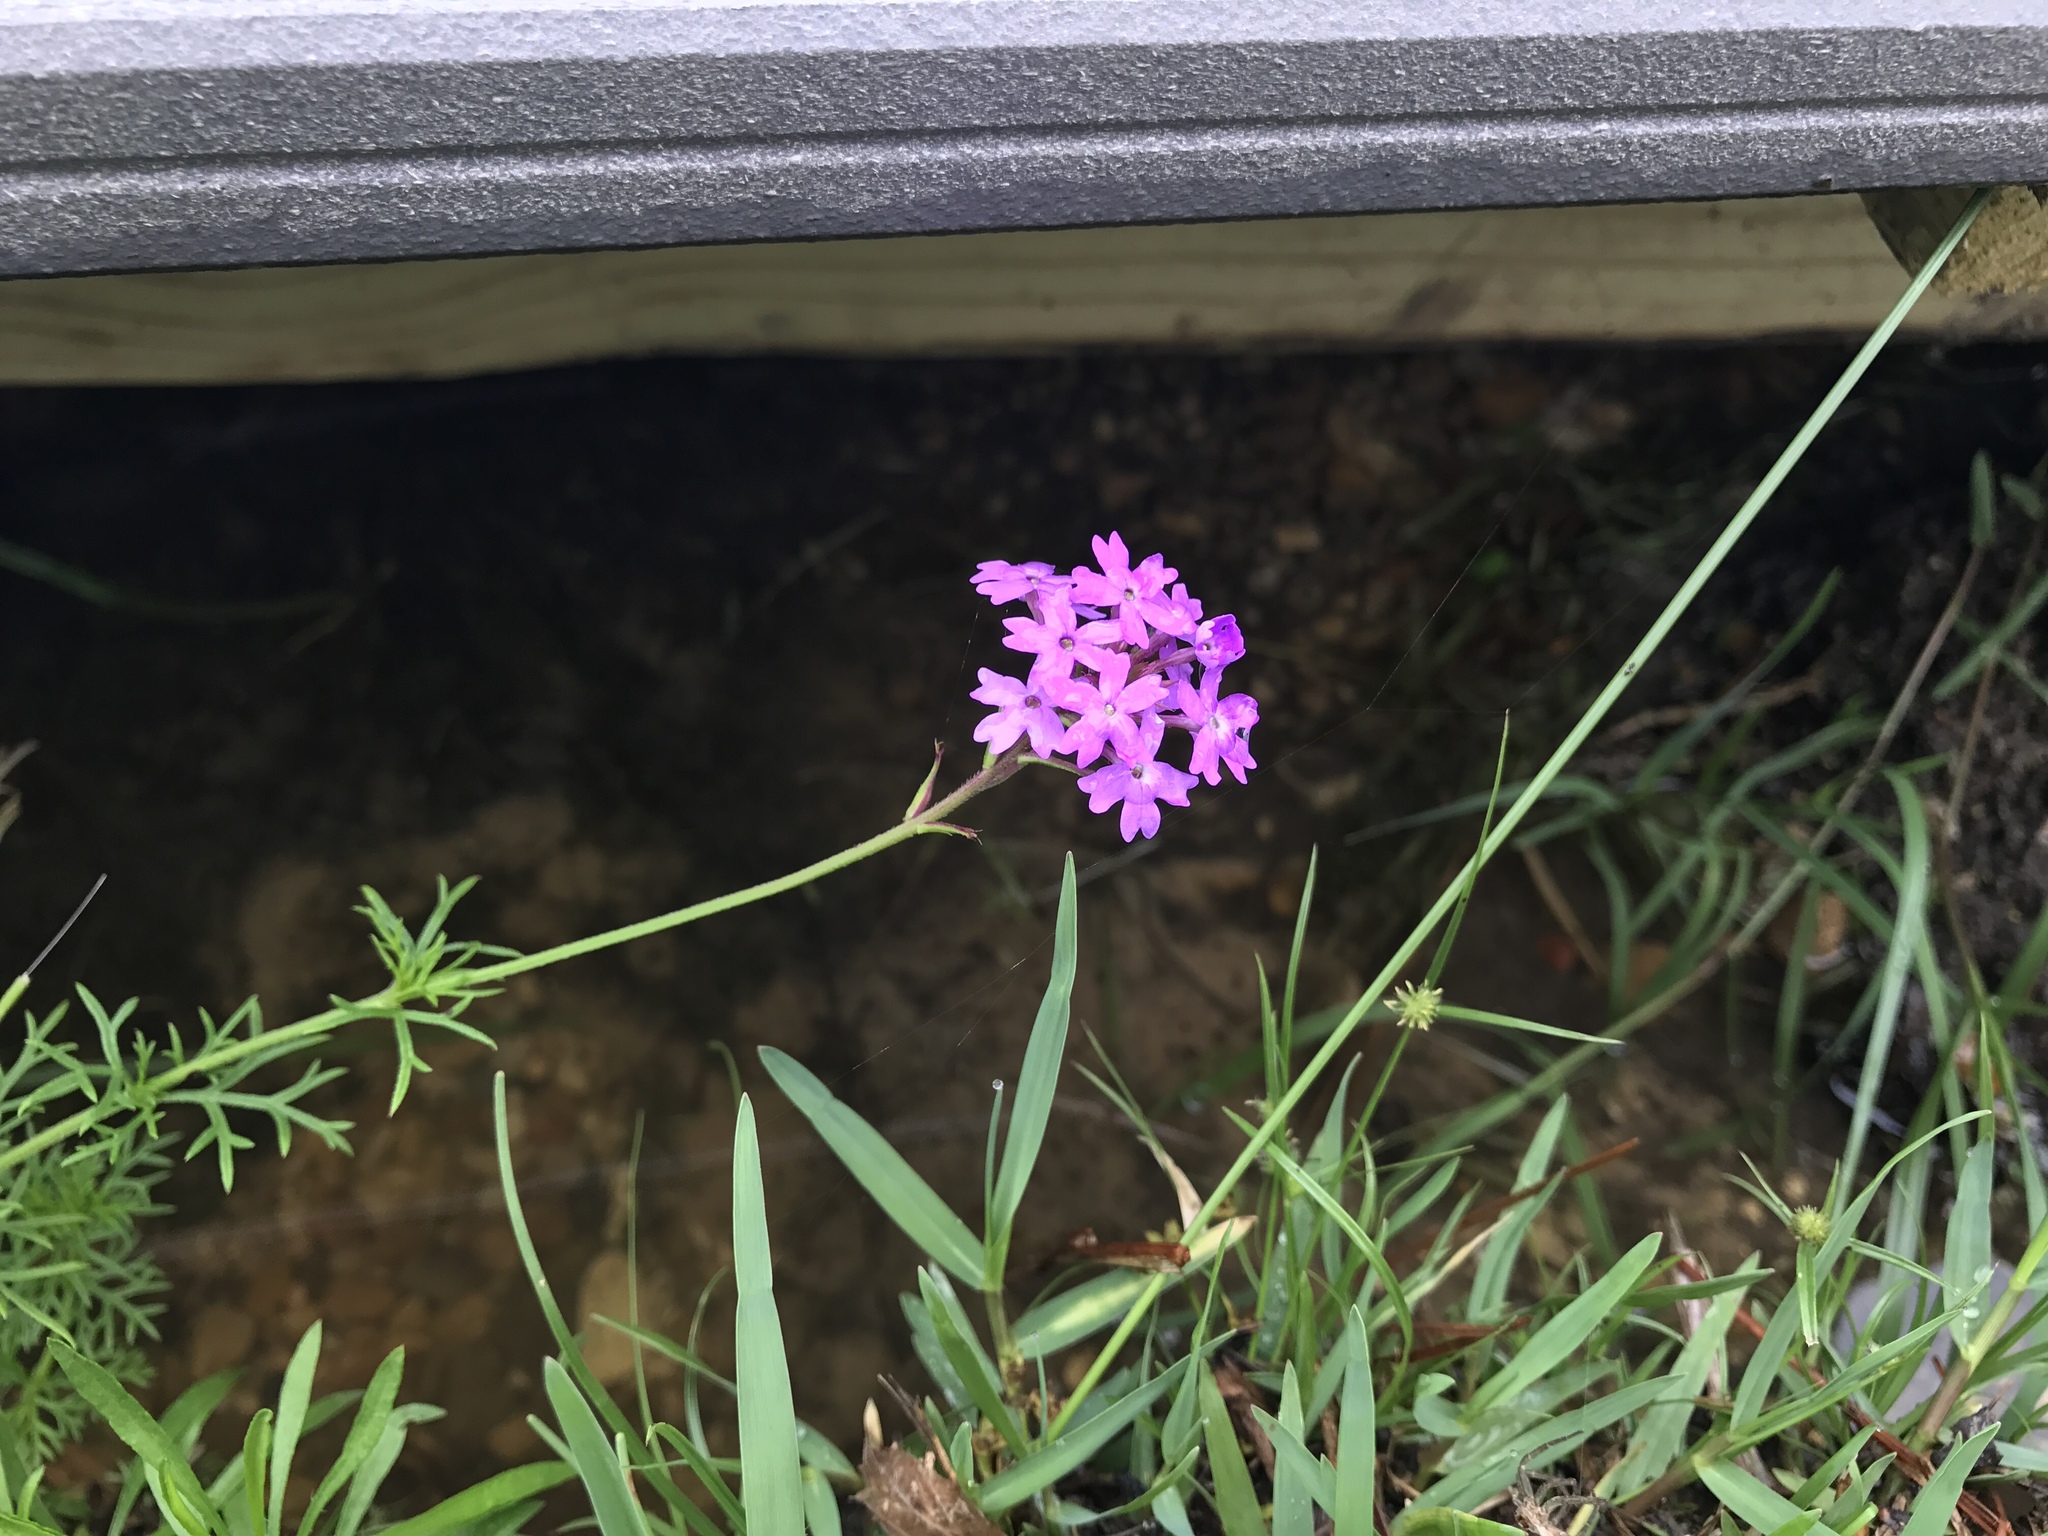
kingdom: Plantae
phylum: Tracheophyta
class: Magnoliopsida
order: Lamiales
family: Verbenaceae
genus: Verbena
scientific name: Verbena aristigera
